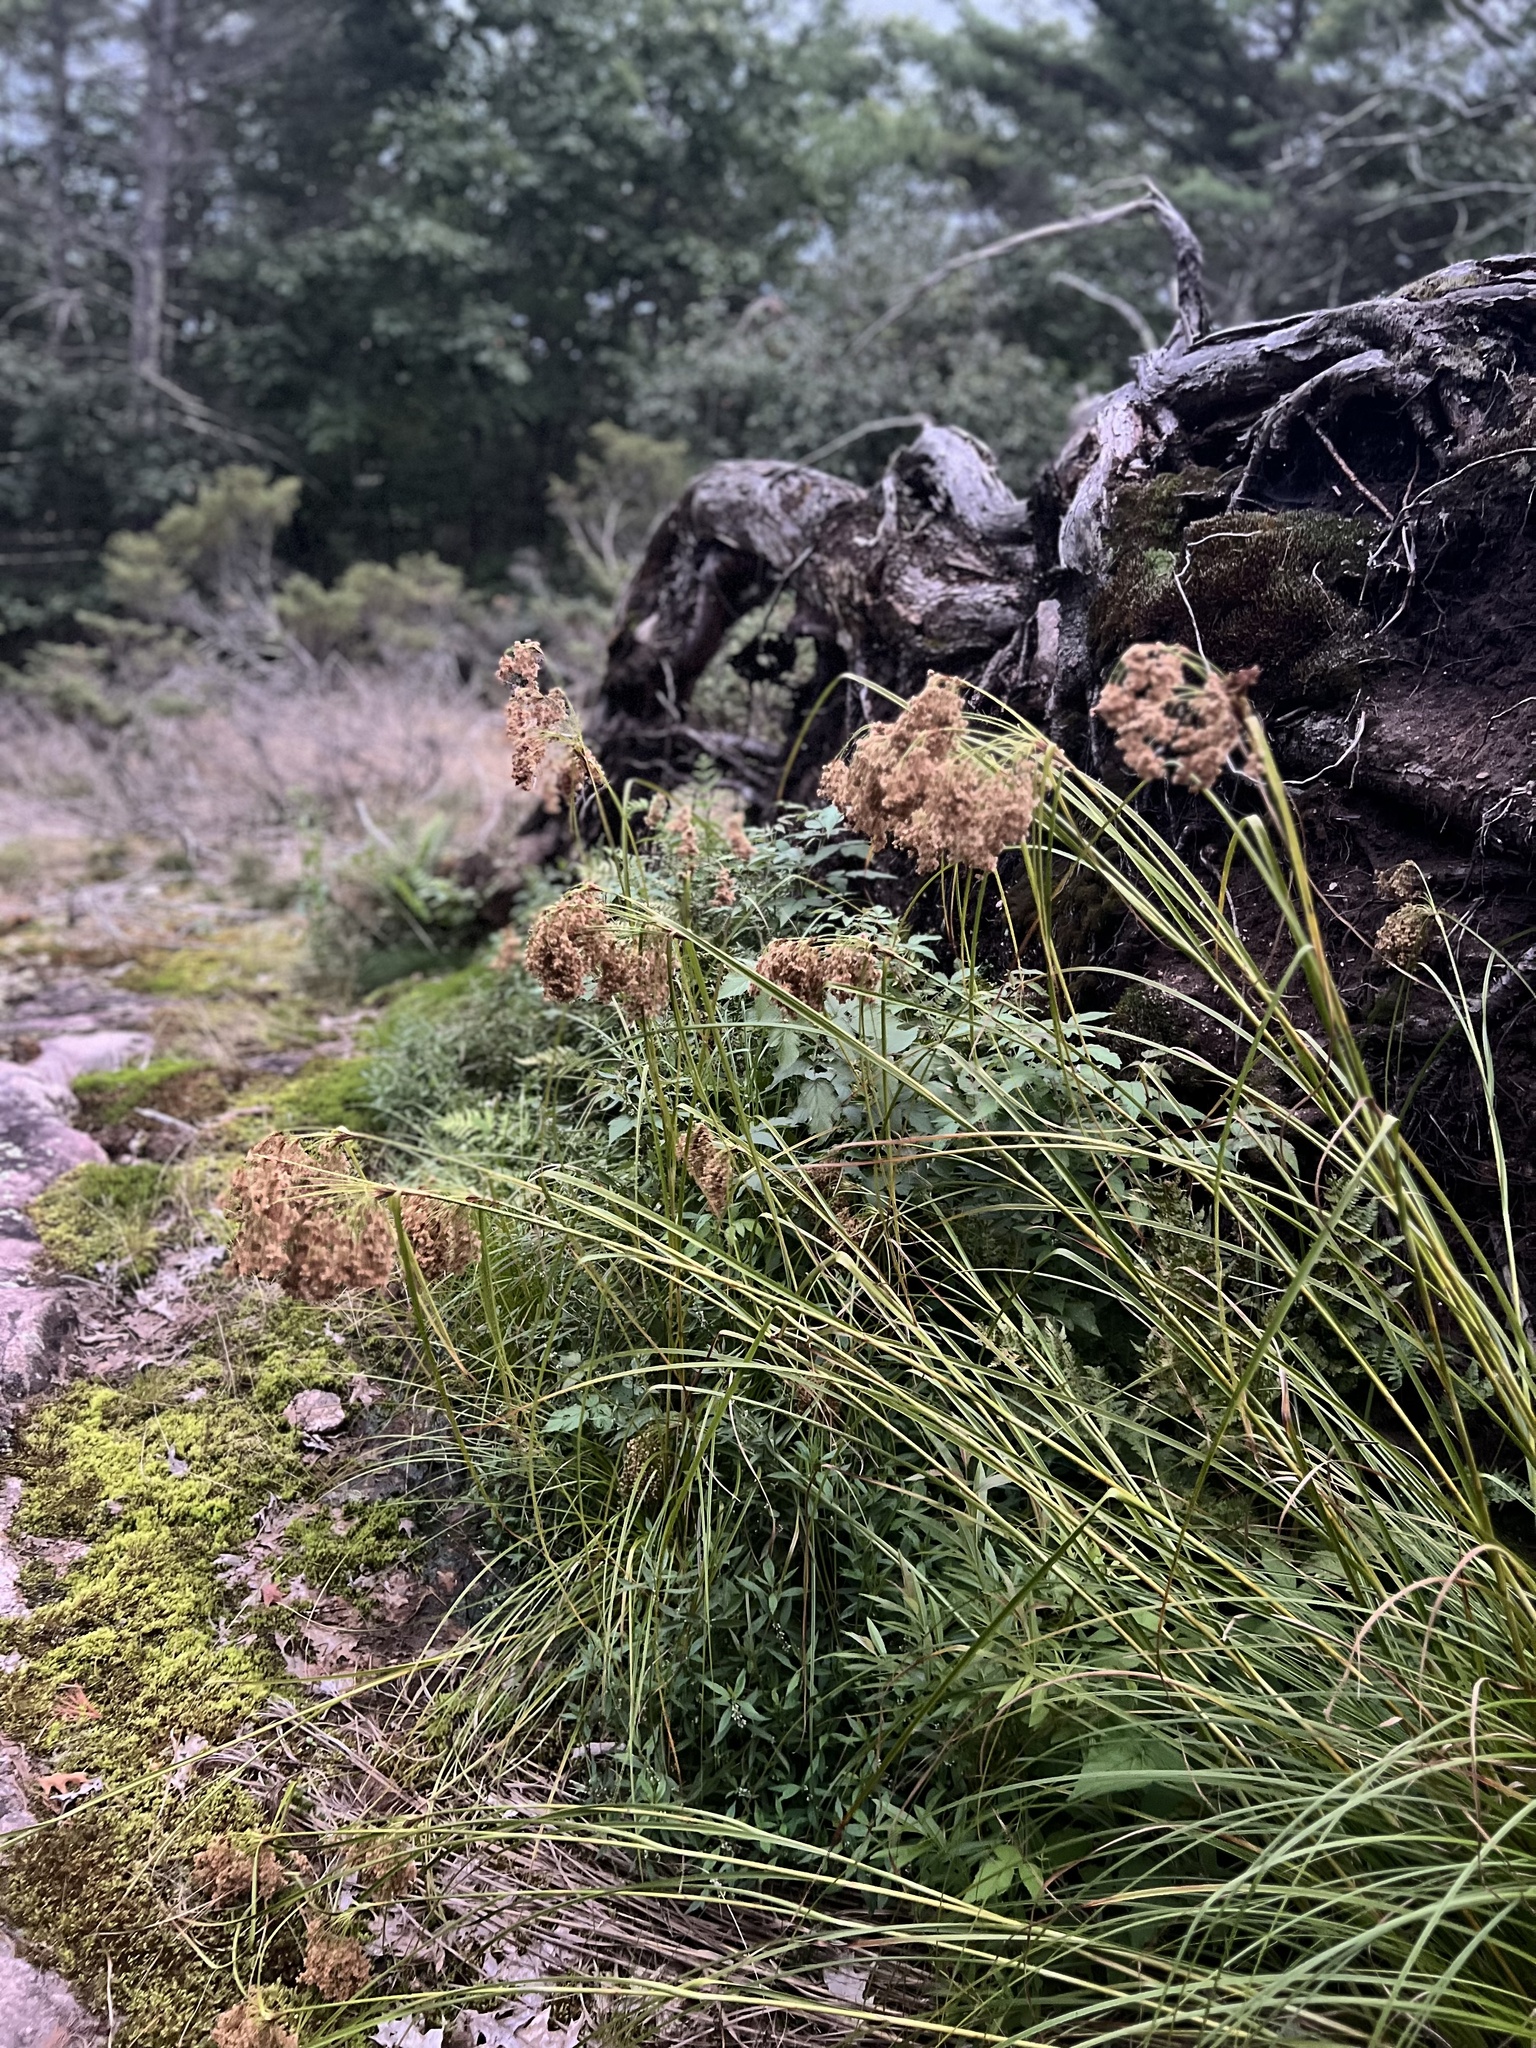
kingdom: Plantae
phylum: Tracheophyta
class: Liliopsida
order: Poales
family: Cyperaceae
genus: Scirpus
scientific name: Scirpus cyperinus
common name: Black-sheathed bulrush
